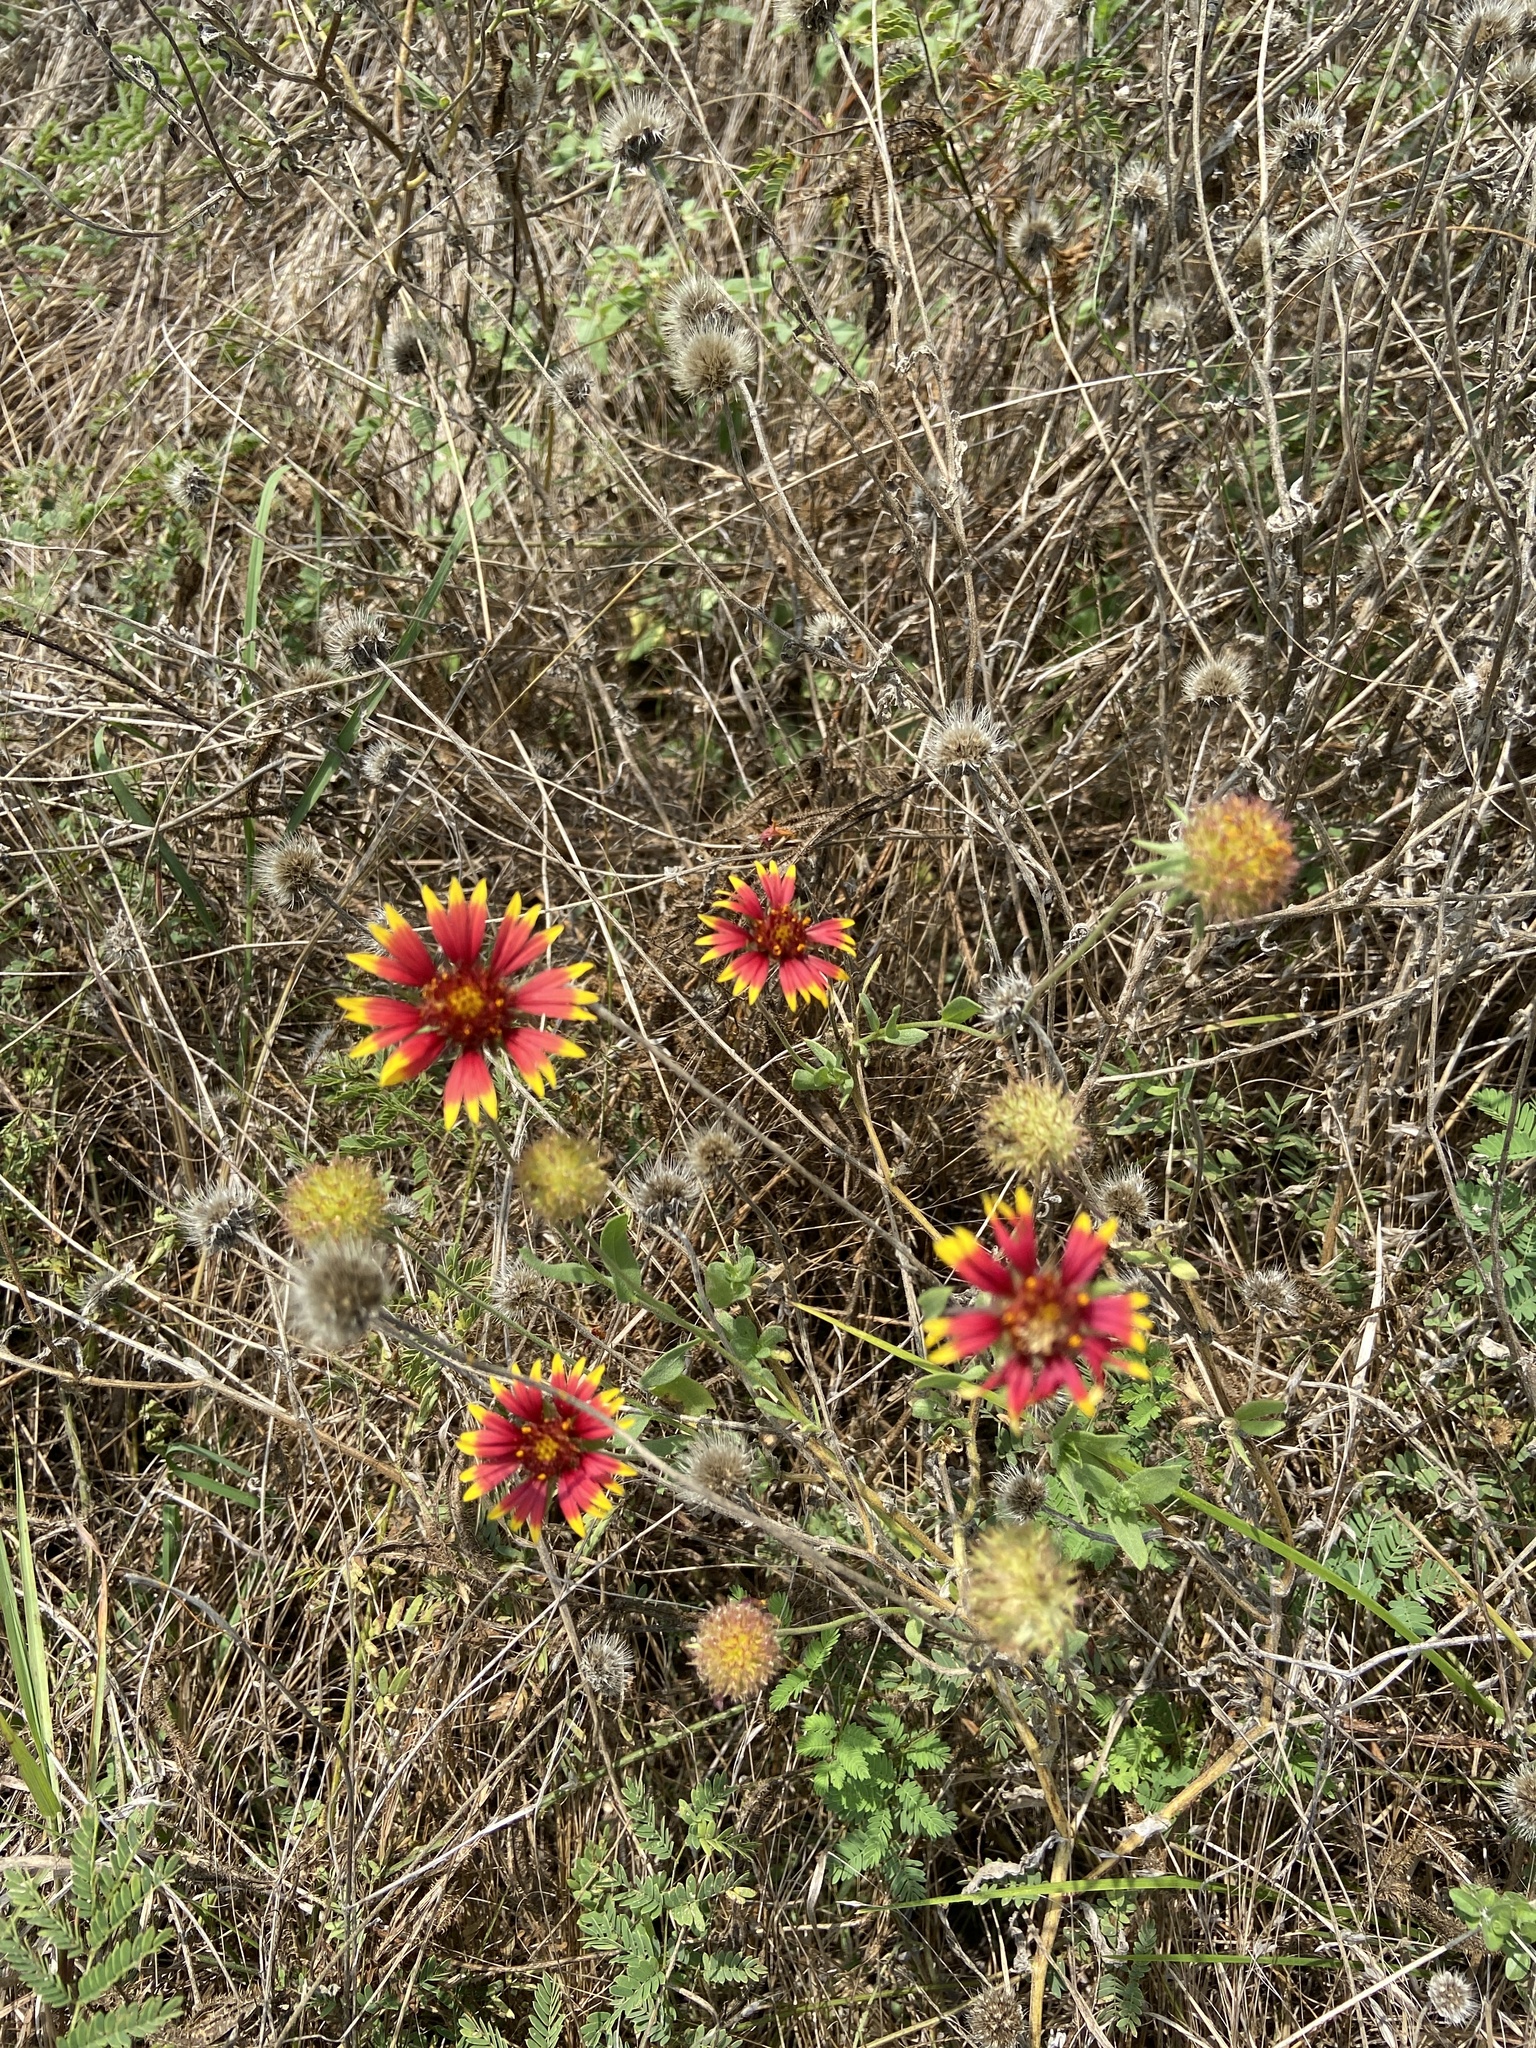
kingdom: Plantae
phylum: Tracheophyta
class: Magnoliopsida
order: Asterales
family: Asteraceae
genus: Gaillardia
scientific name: Gaillardia pulchella
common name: Firewheel
